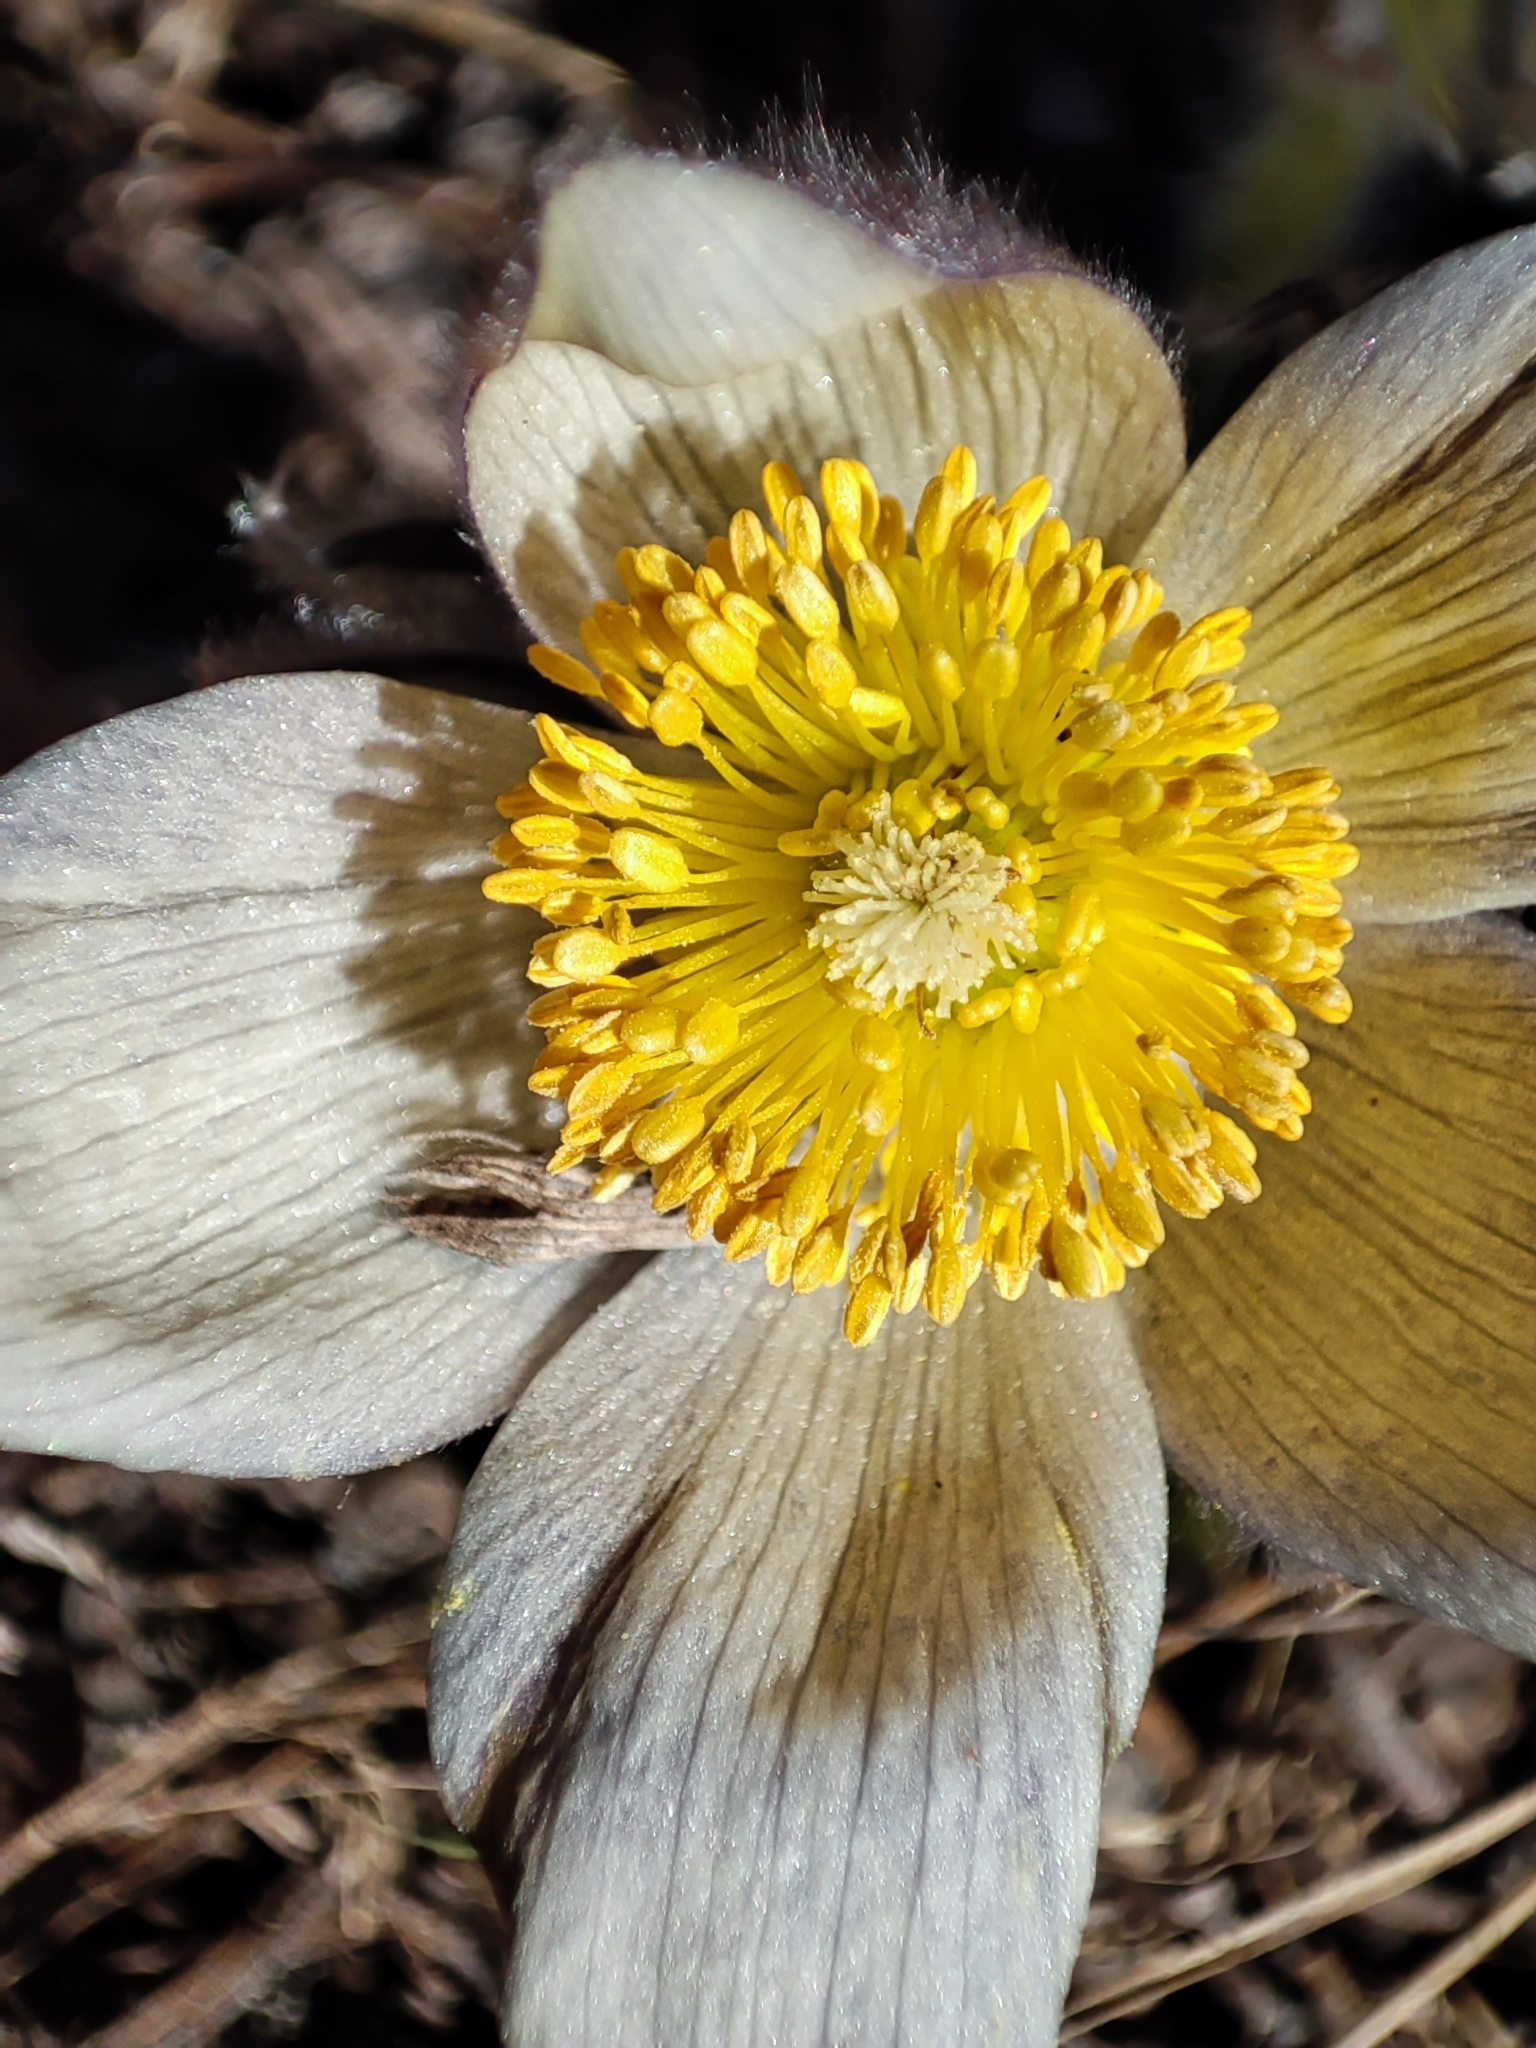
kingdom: Plantae
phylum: Tracheophyta
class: Magnoliopsida
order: Ranunculales
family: Ranunculaceae
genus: Pulsatilla
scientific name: Pulsatilla patens
